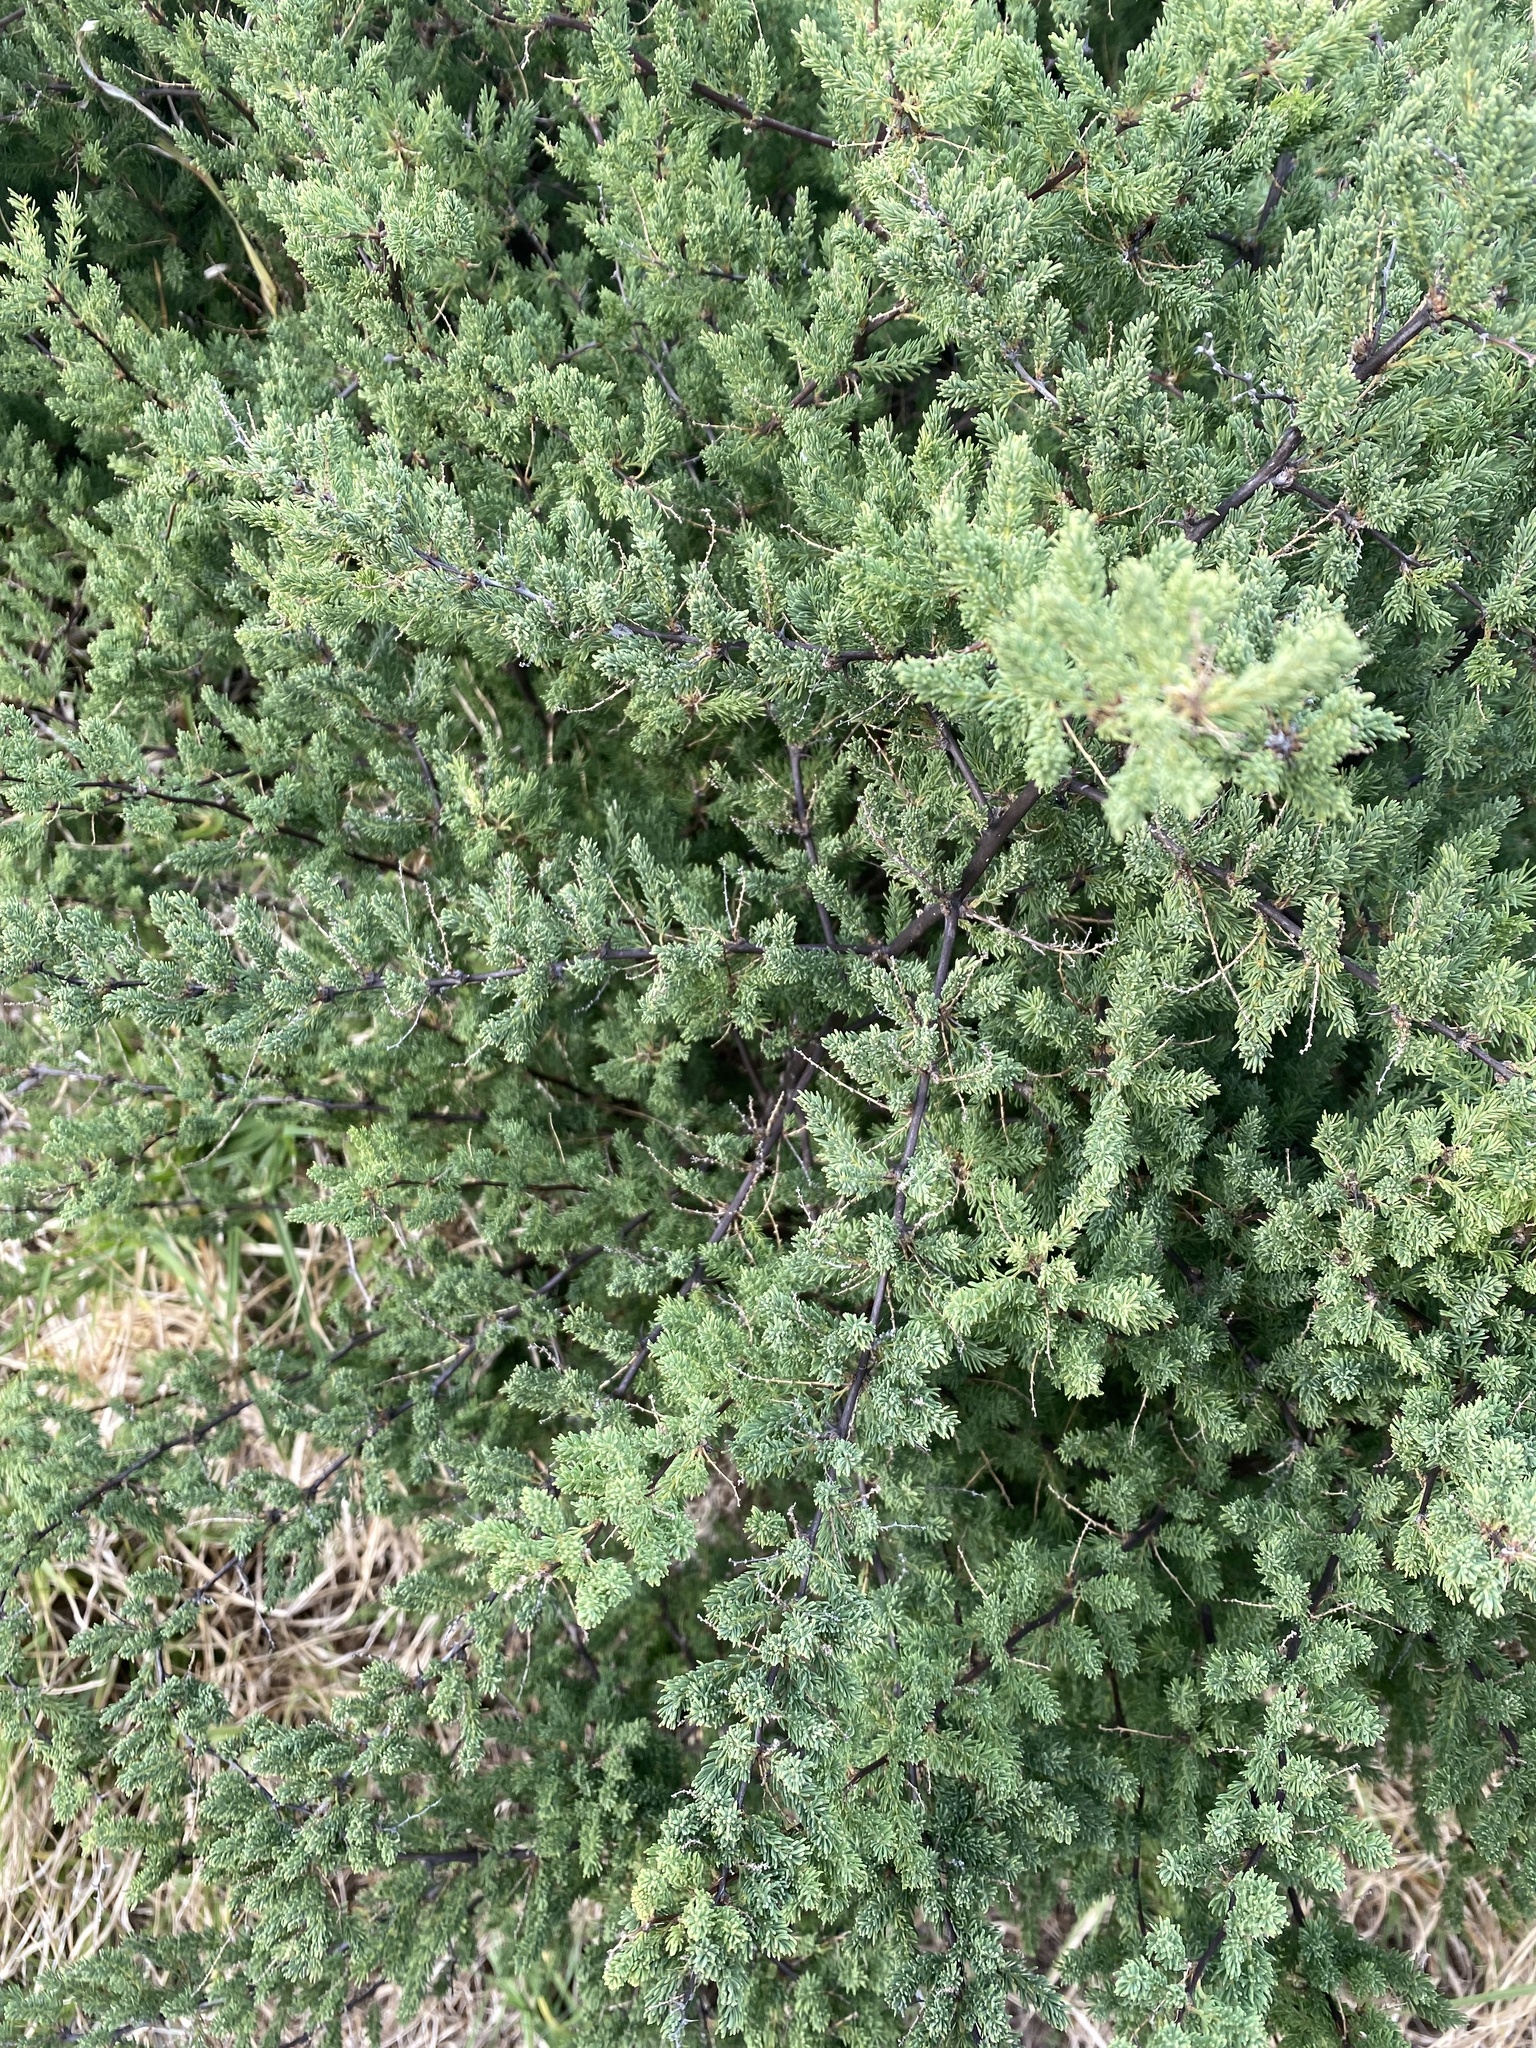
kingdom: Plantae
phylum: Tracheophyta
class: Liliopsida
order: Asparagales
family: Asparagaceae
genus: Asparagus
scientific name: Asparagus rubicundus
